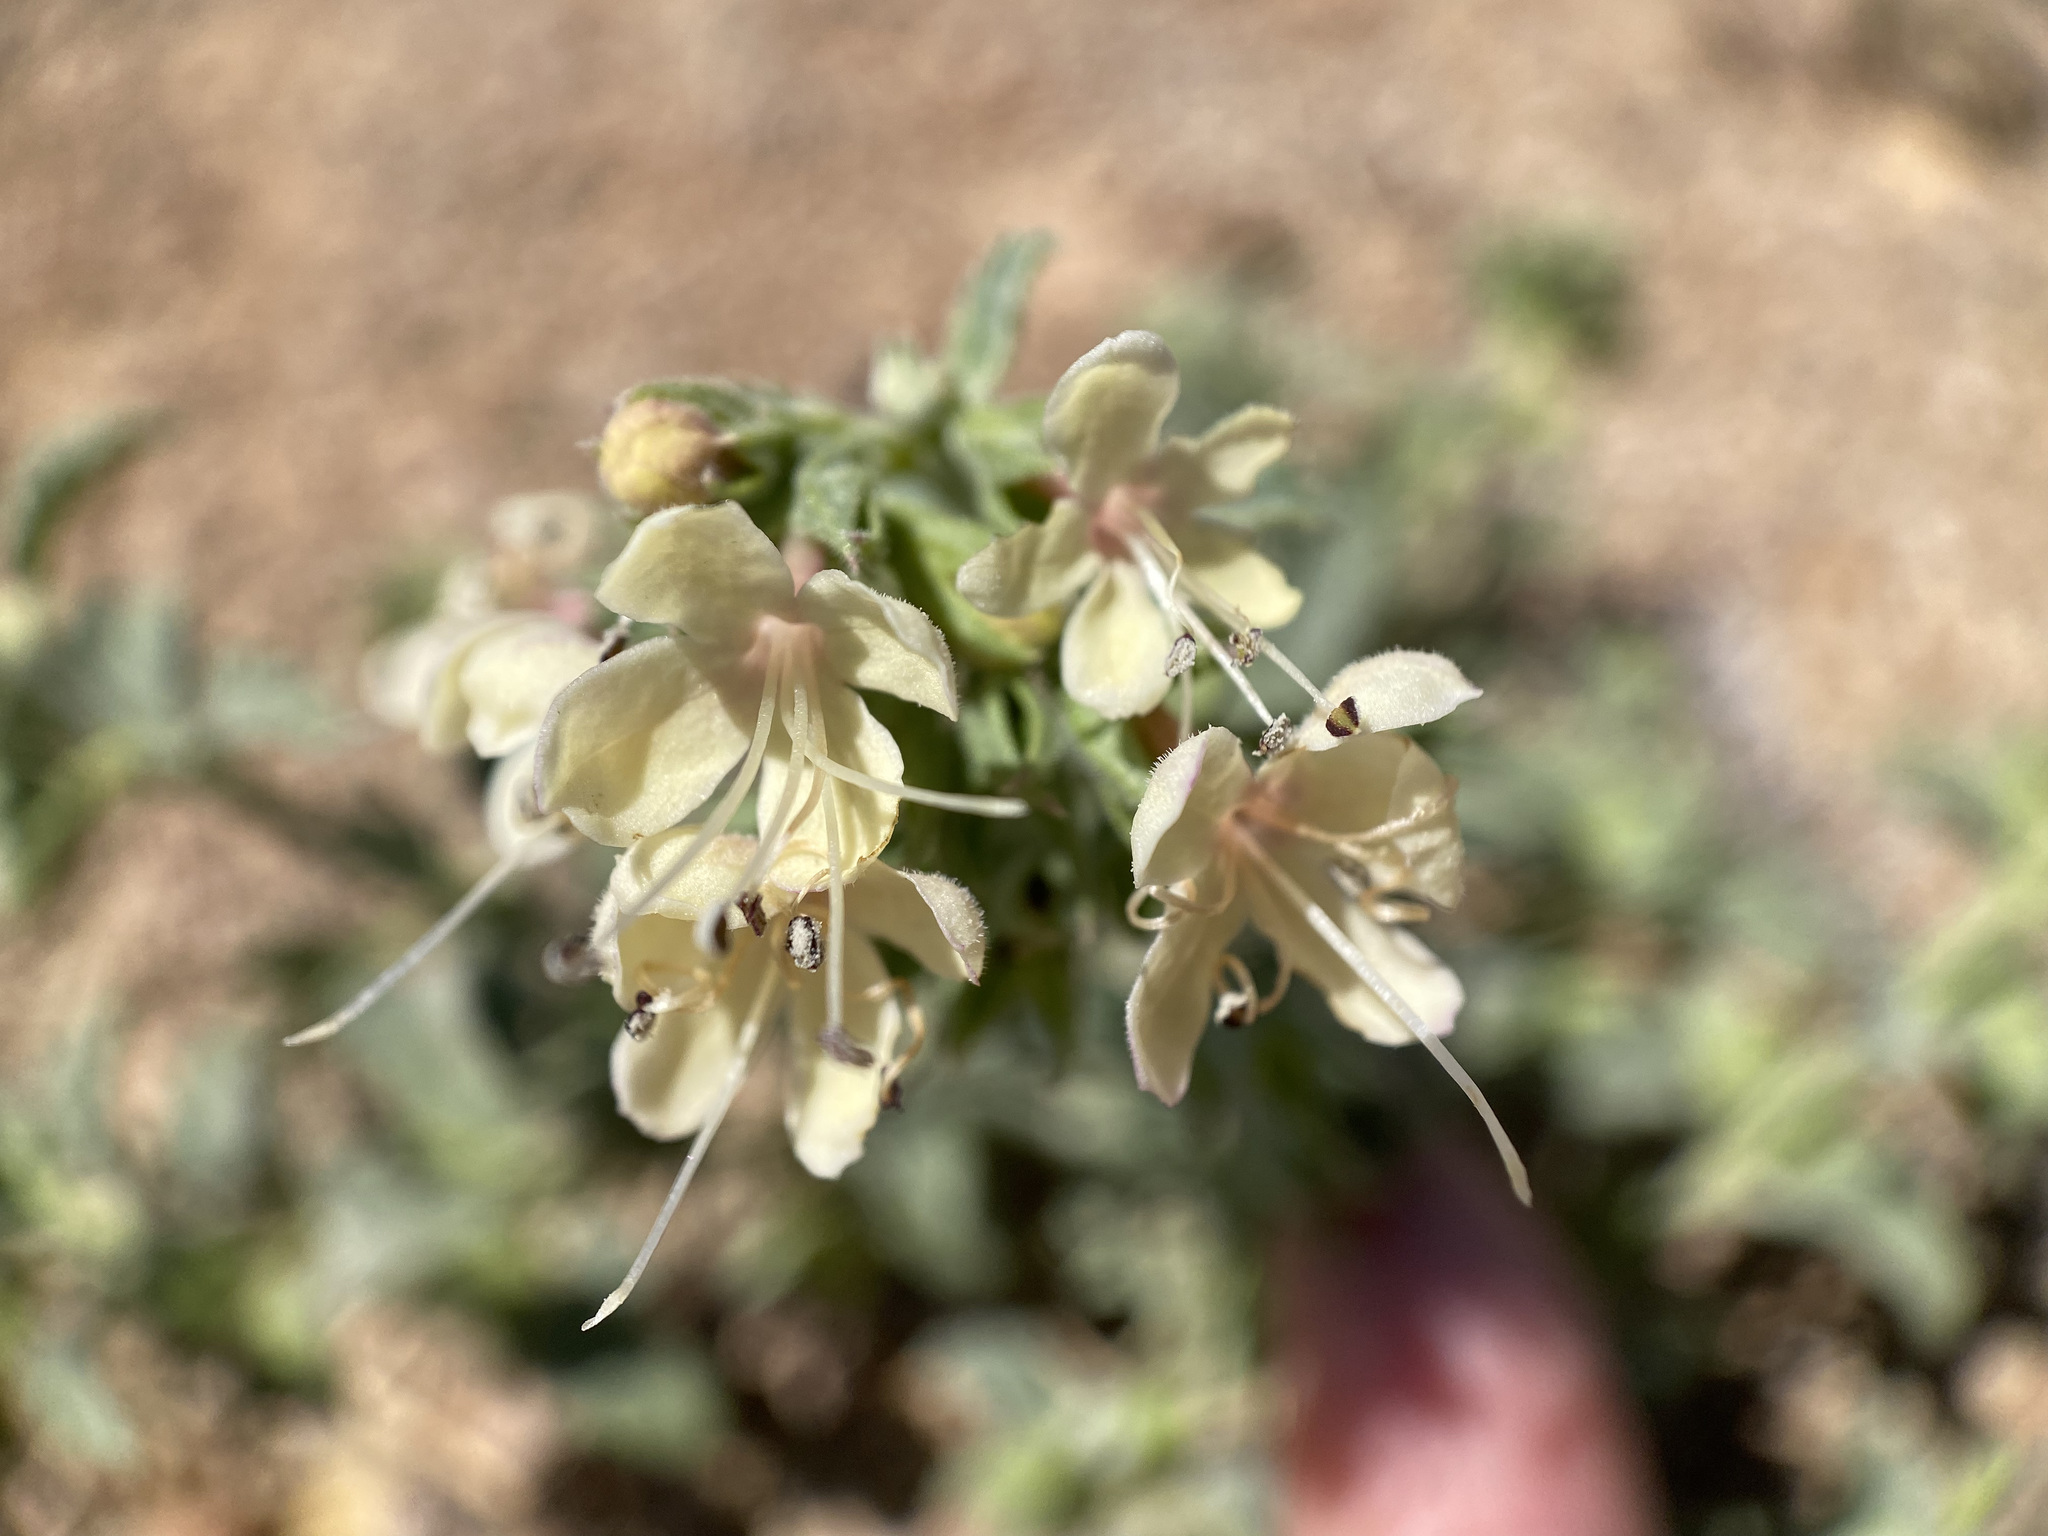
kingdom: Plantae
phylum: Tracheophyta
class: Magnoliopsida
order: Lamiales
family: Lamiaceae
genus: Tetraclea
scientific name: Tetraclea coulteri
